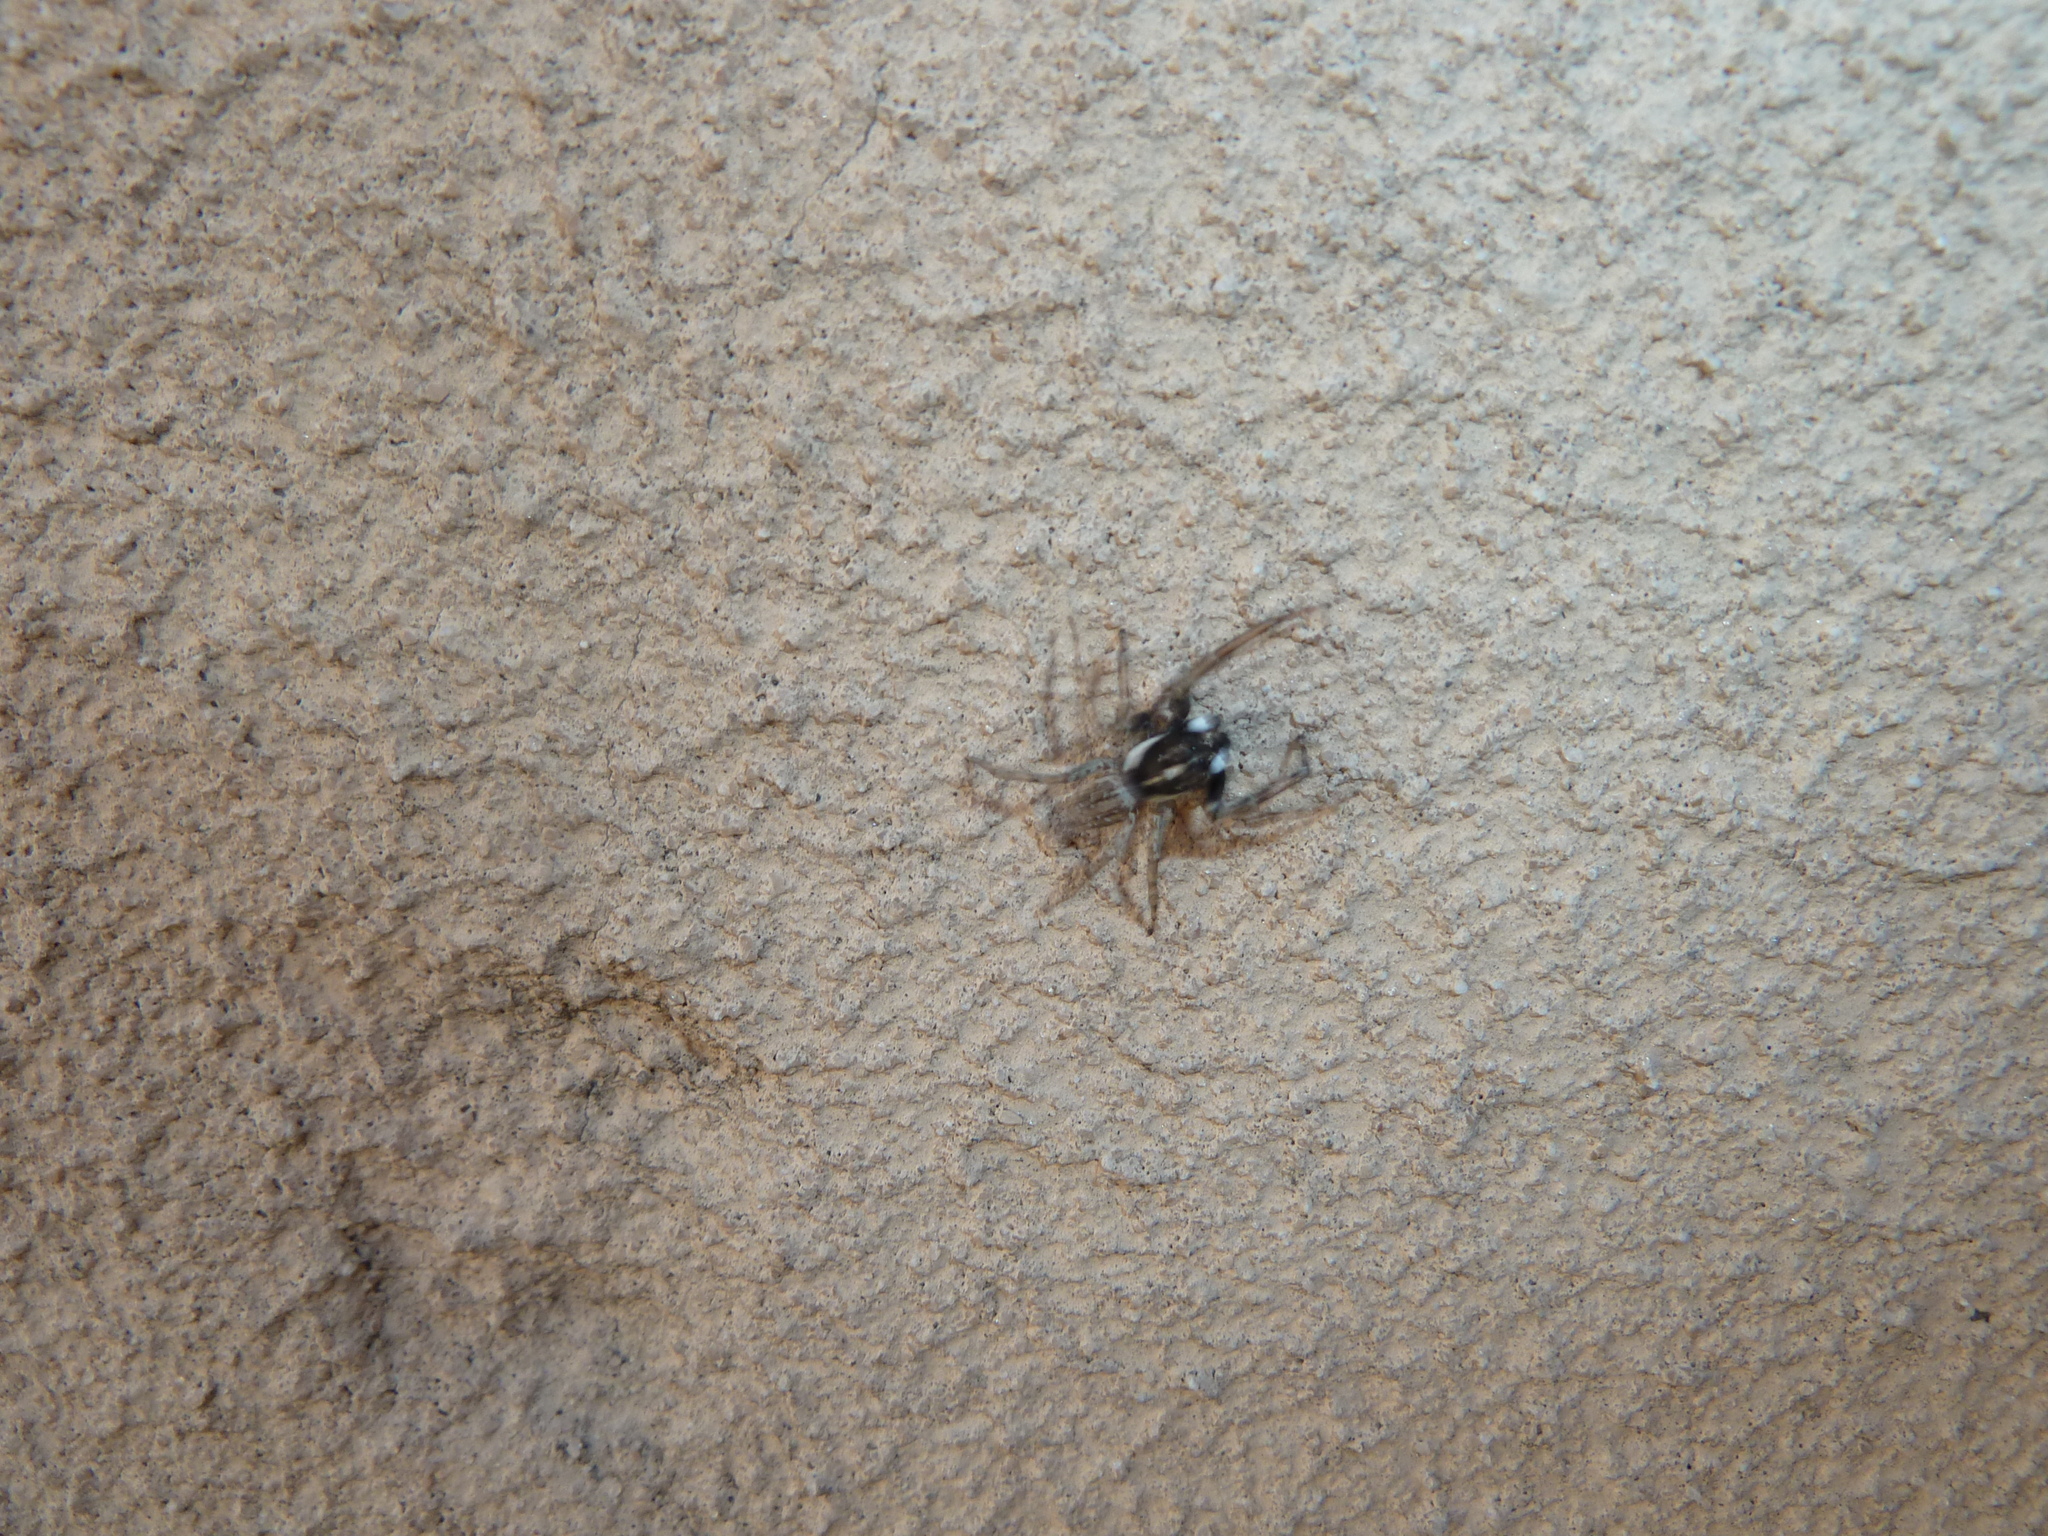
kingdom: Animalia
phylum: Arthropoda
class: Arachnida
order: Araneae
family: Salticidae
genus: Menemerus
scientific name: Menemerus semilimbatus
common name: Jumping spider
